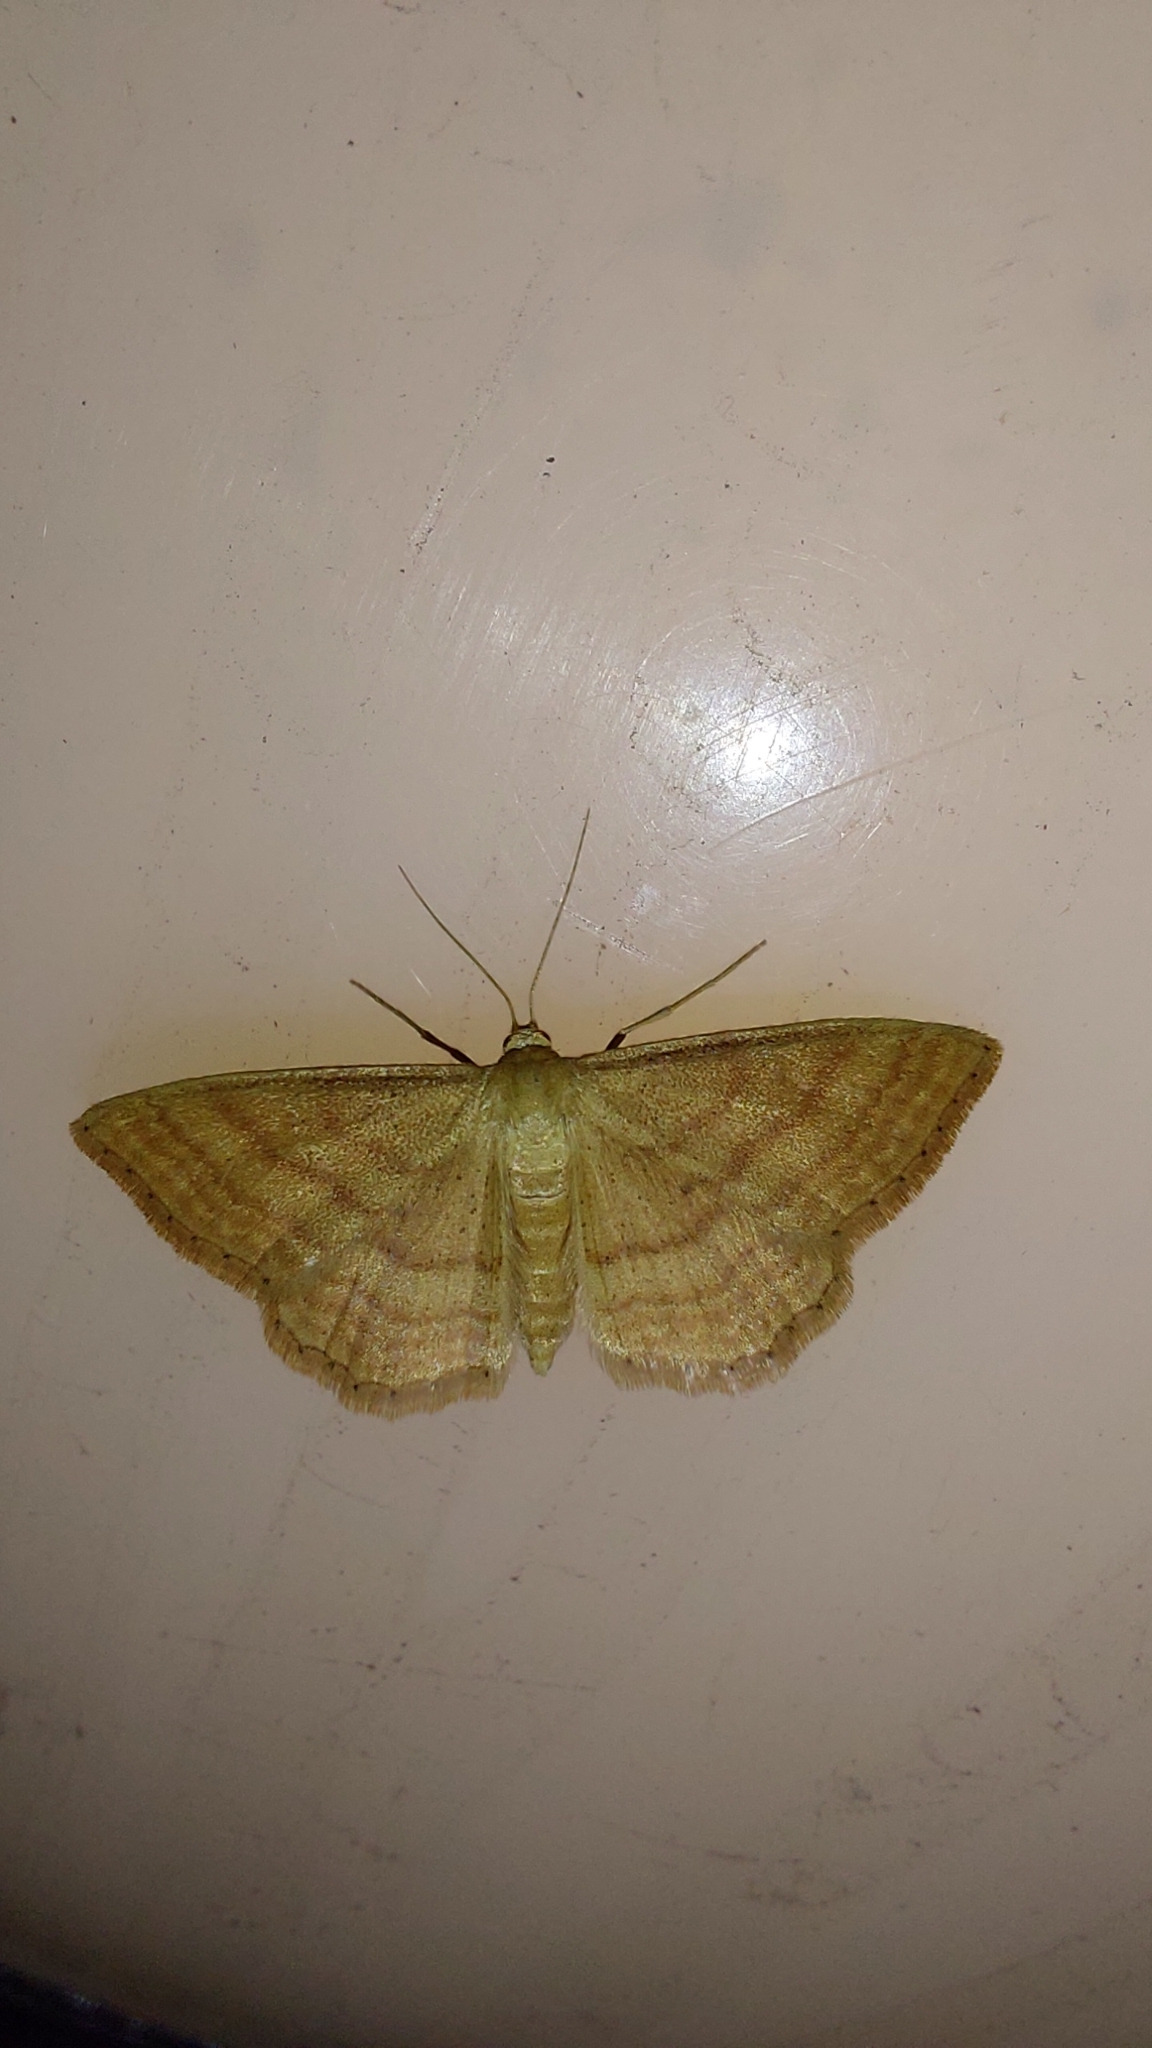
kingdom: Animalia
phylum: Arthropoda
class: Insecta
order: Lepidoptera
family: Geometridae
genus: Idaea
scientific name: Idaea ochrata
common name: Bright wave
